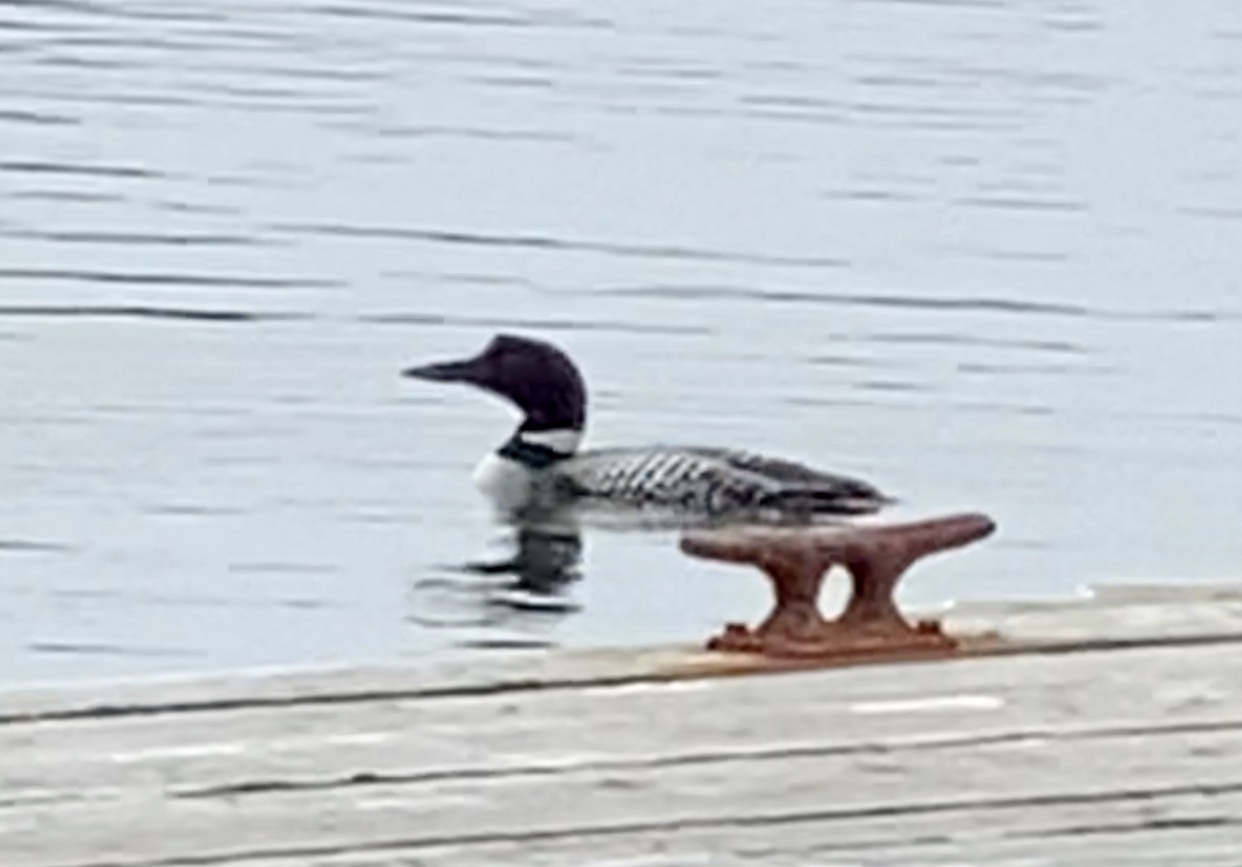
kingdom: Animalia
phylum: Chordata
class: Aves
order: Gaviiformes
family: Gaviidae
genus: Gavia
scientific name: Gavia immer
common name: Common loon
